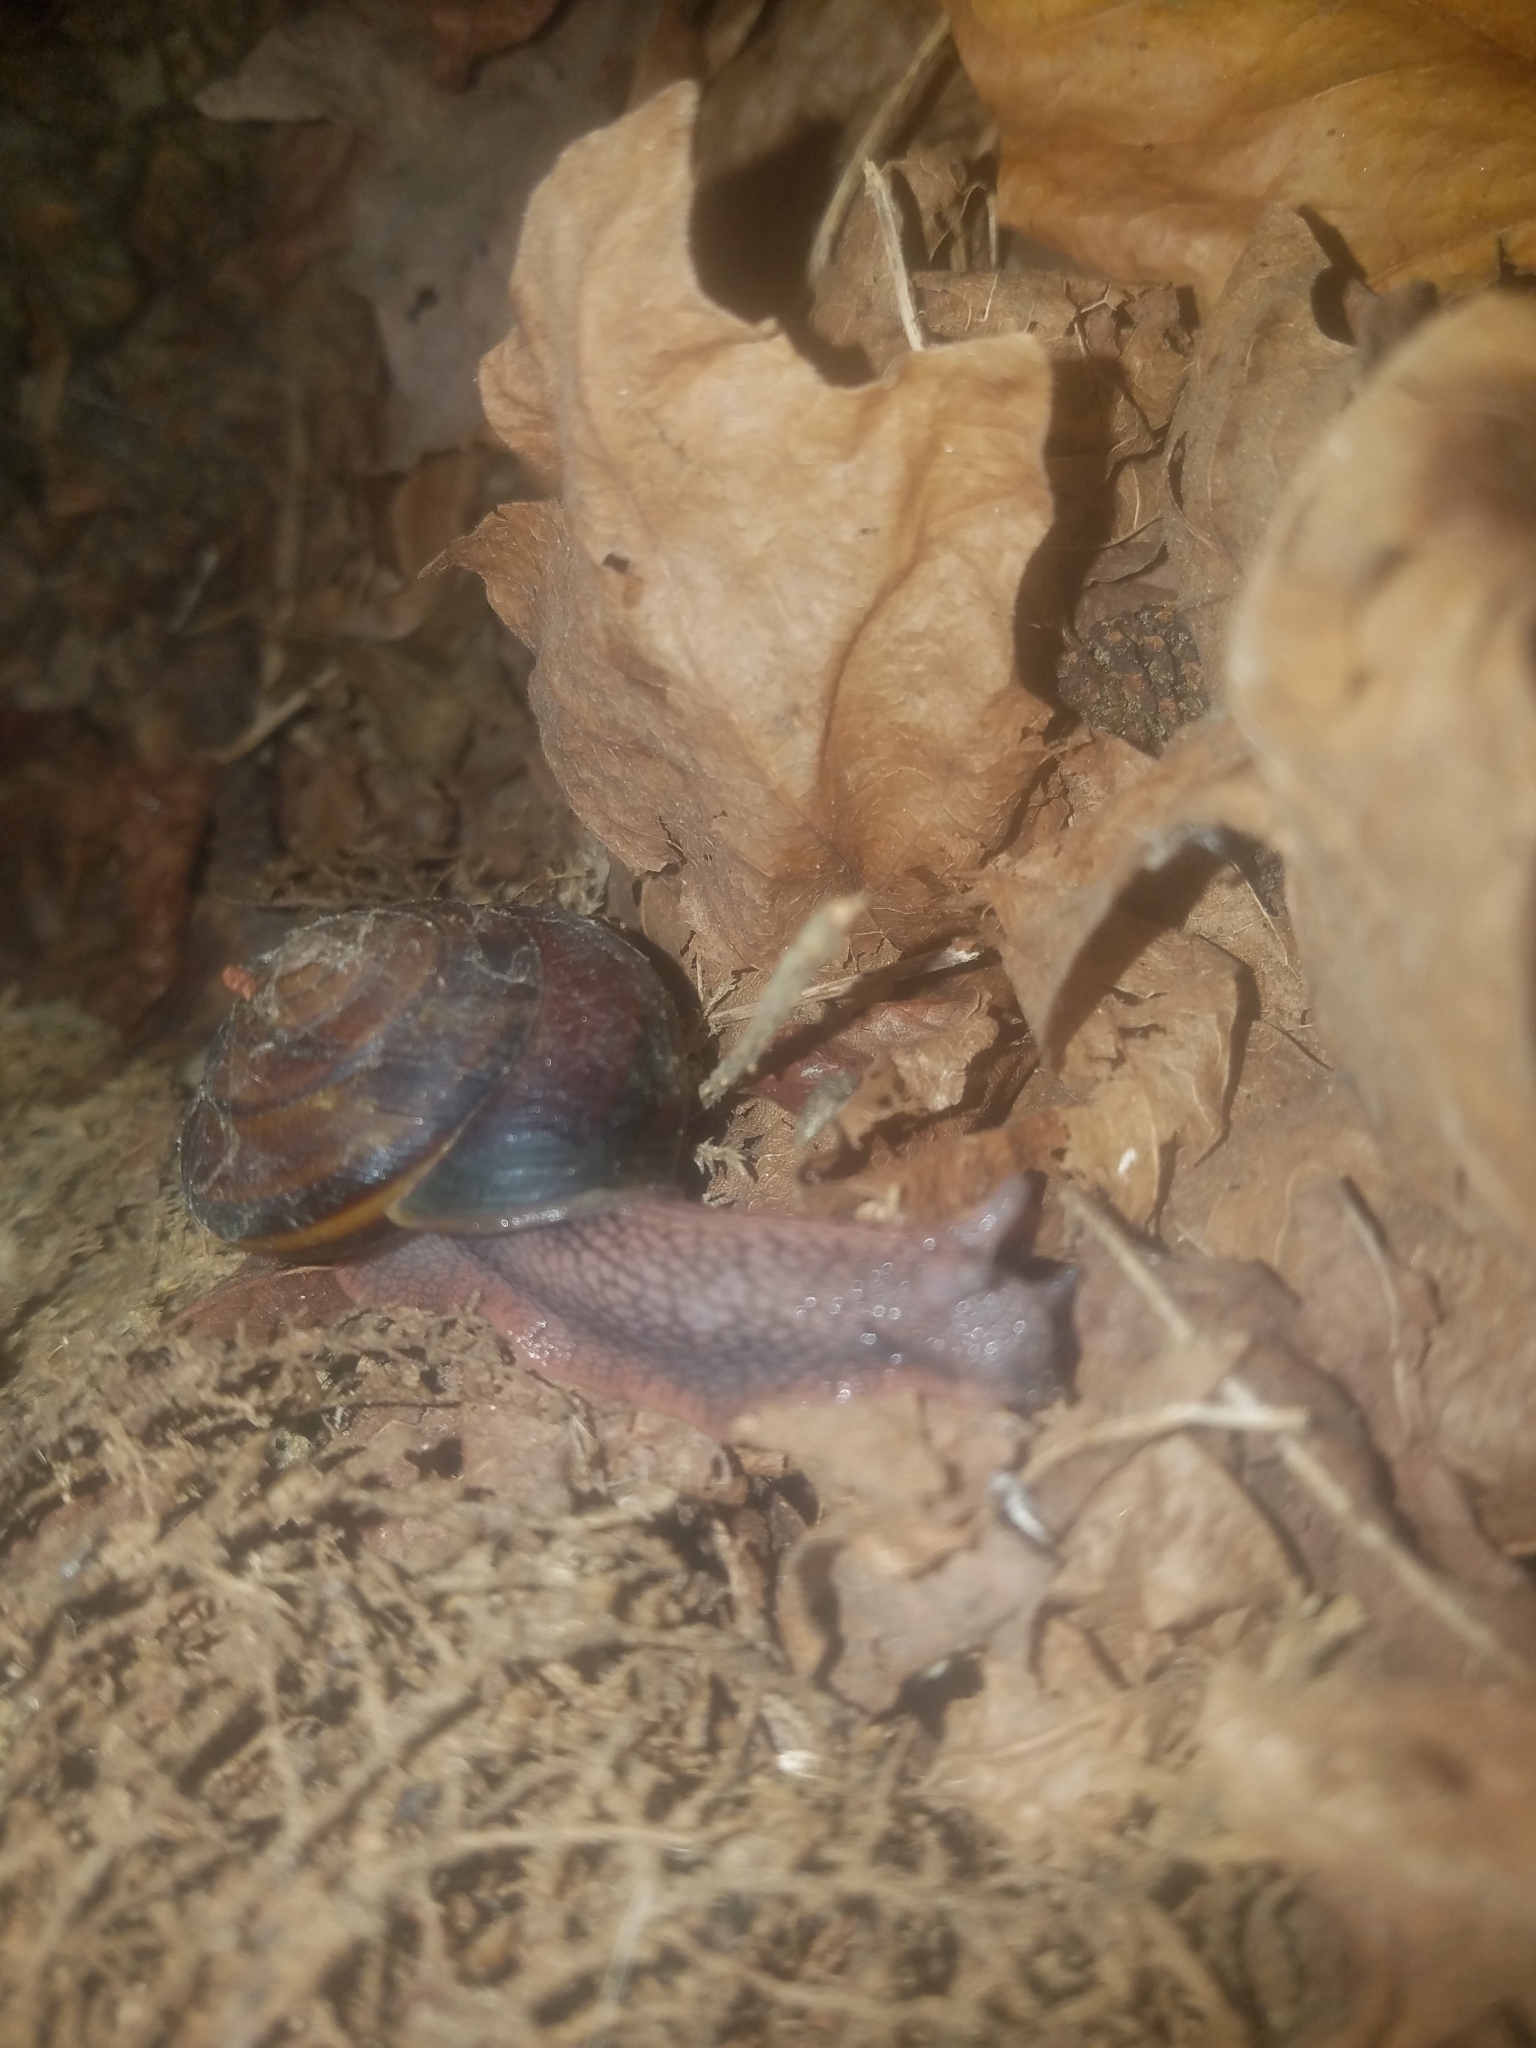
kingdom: Animalia
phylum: Mollusca
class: Gastropoda
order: Stylommatophora
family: Xanthonychidae
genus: Monadenia
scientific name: Monadenia fidelis
